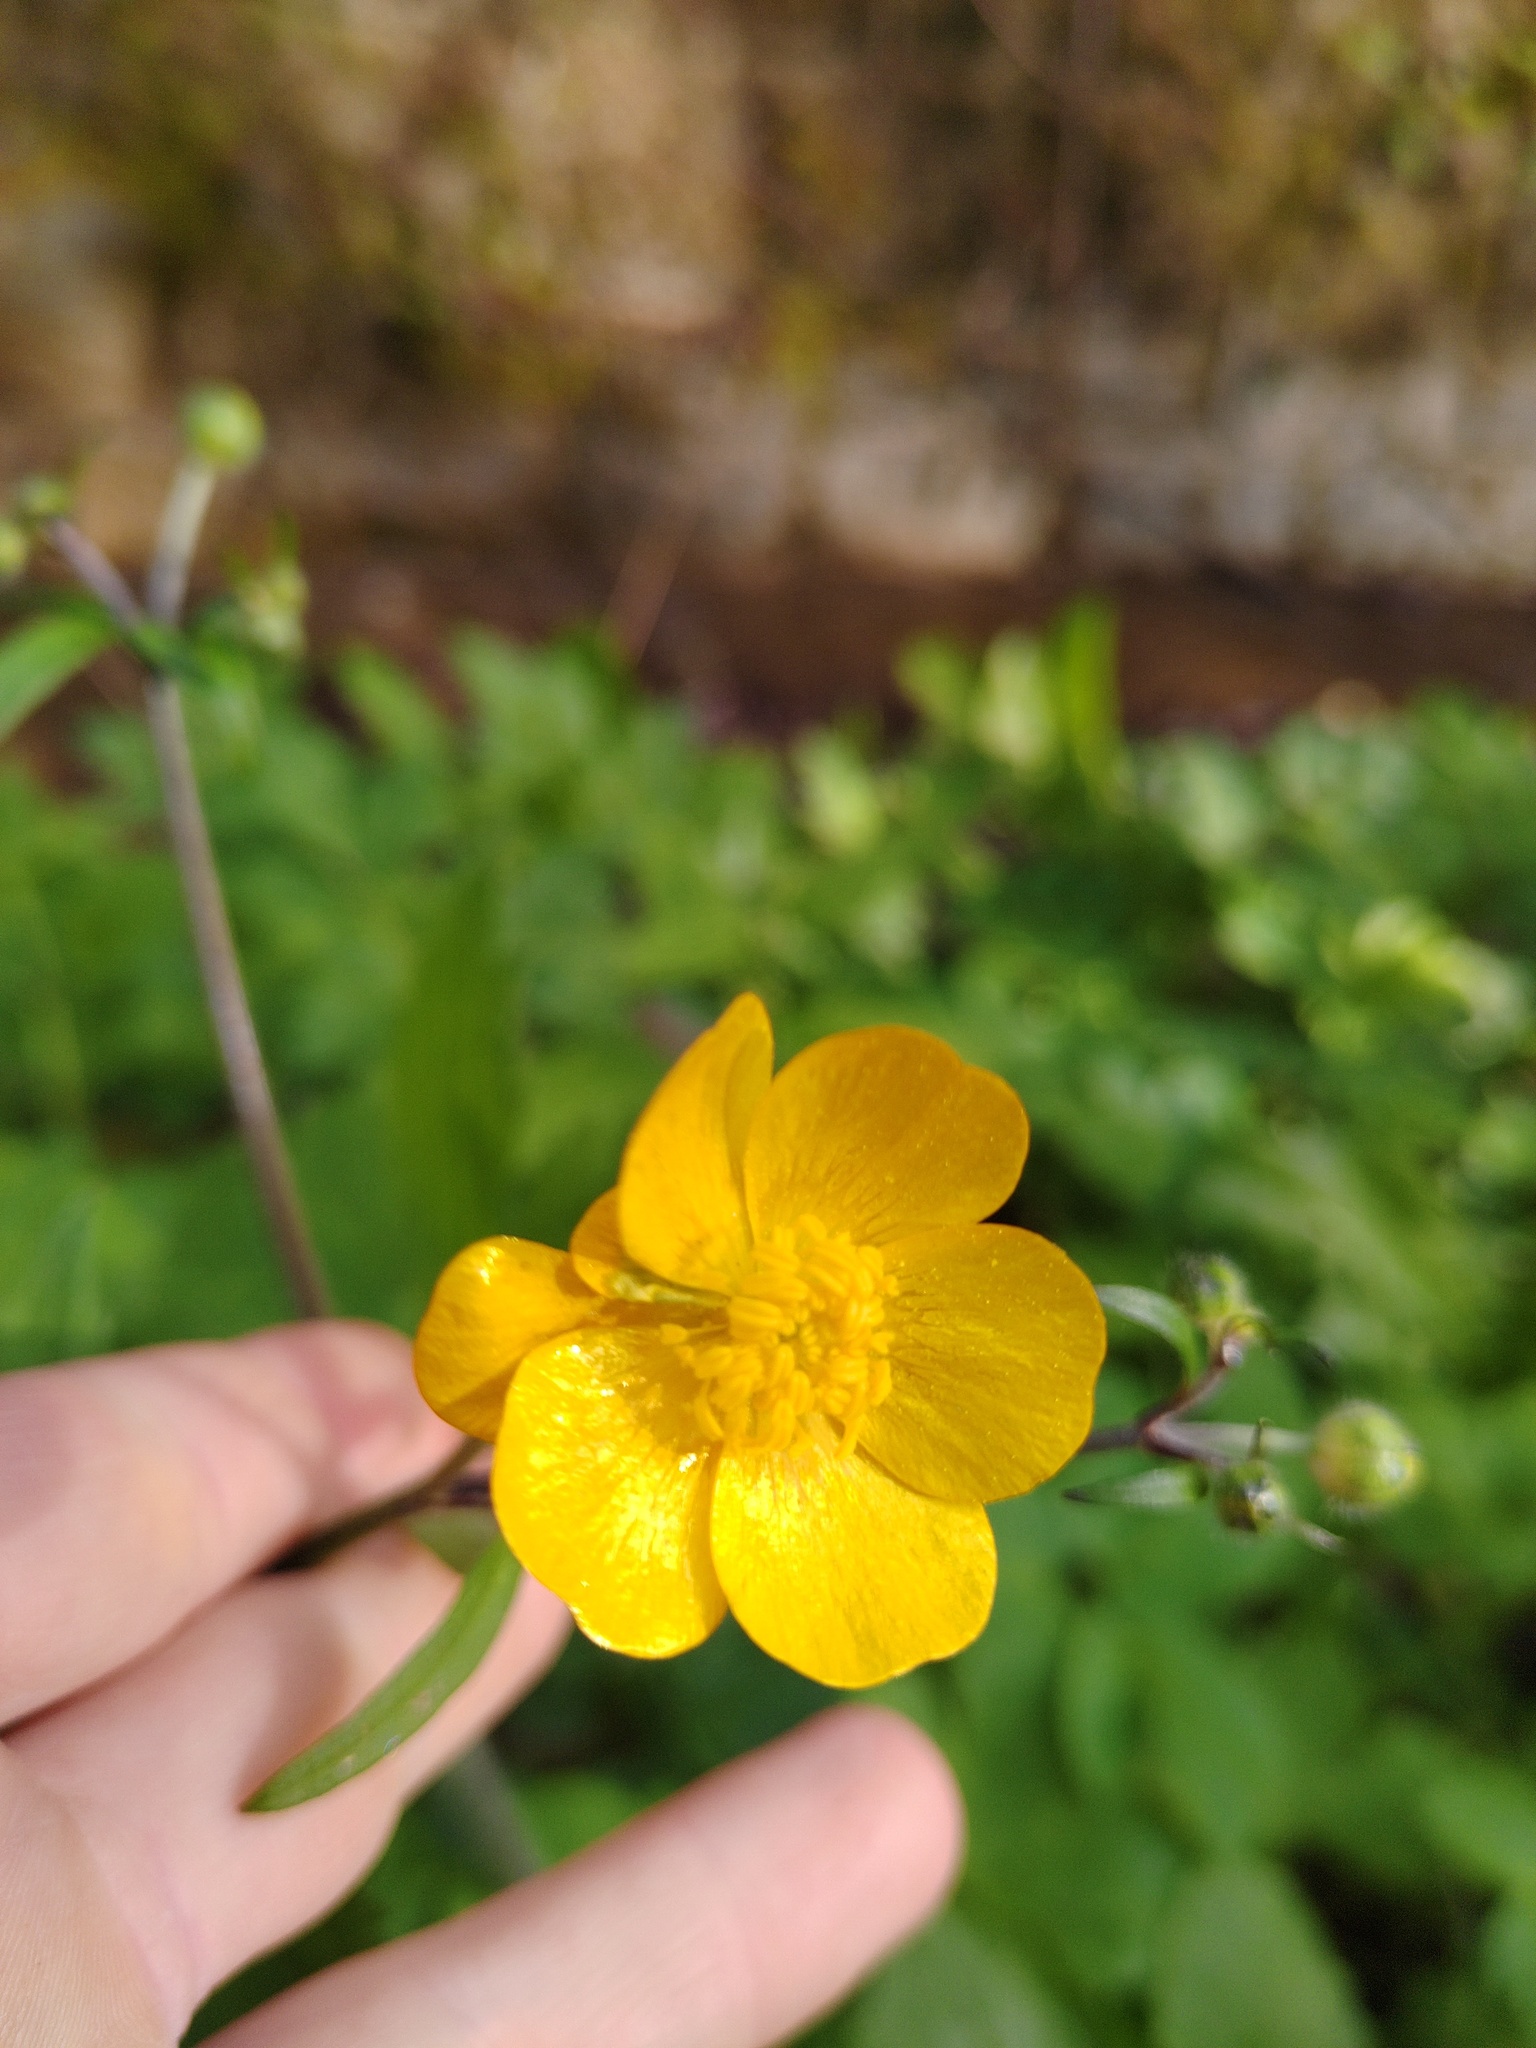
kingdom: Plantae
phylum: Tracheophyta
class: Magnoliopsida
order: Ranunculales
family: Ranunculaceae
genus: Ranunculus
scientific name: Ranunculus lanuginosus
